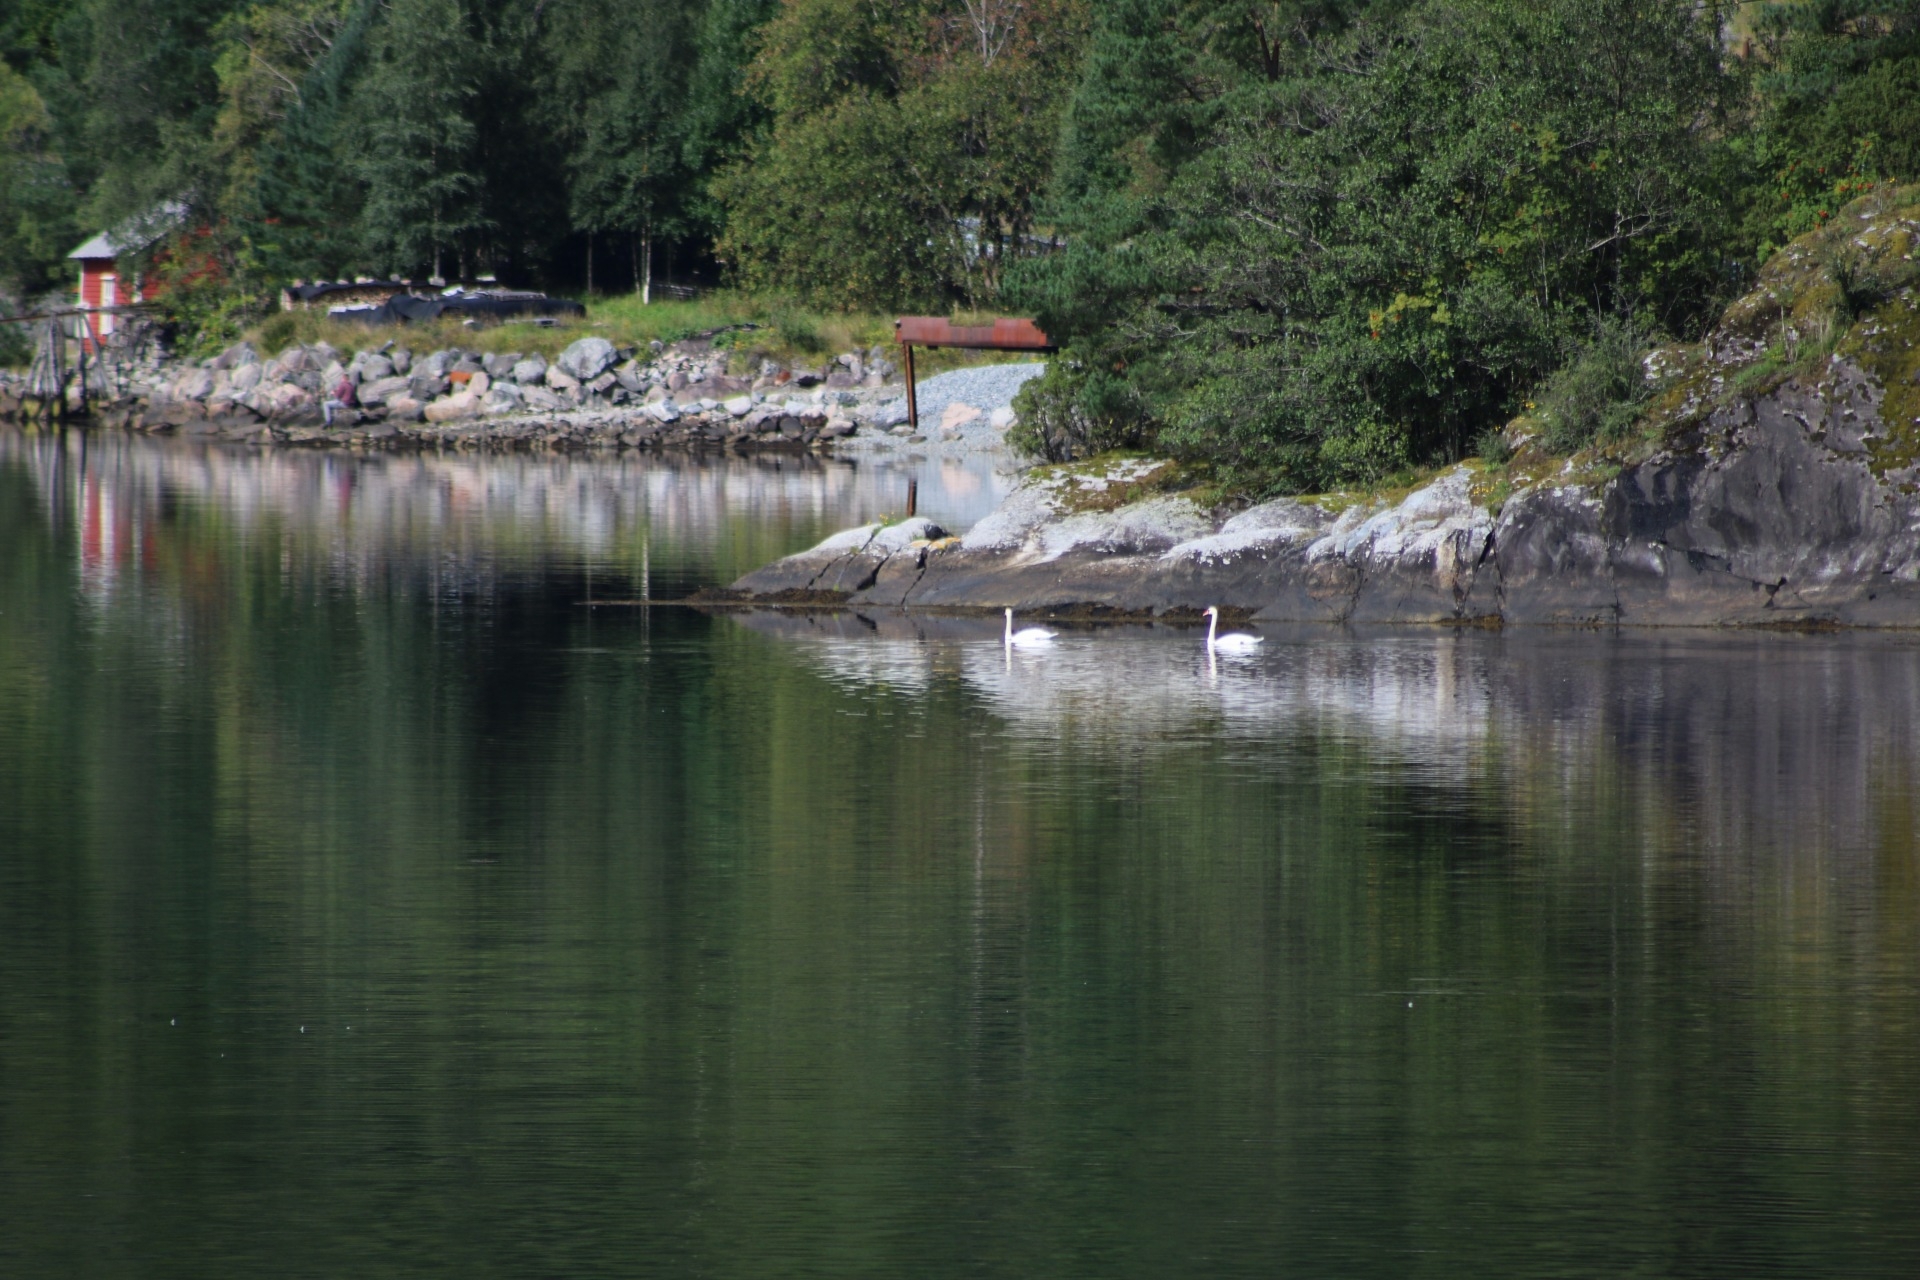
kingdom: Animalia
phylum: Chordata
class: Aves
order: Anseriformes
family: Anatidae
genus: Cygnus
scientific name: Cygnus olor
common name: Mute swan
